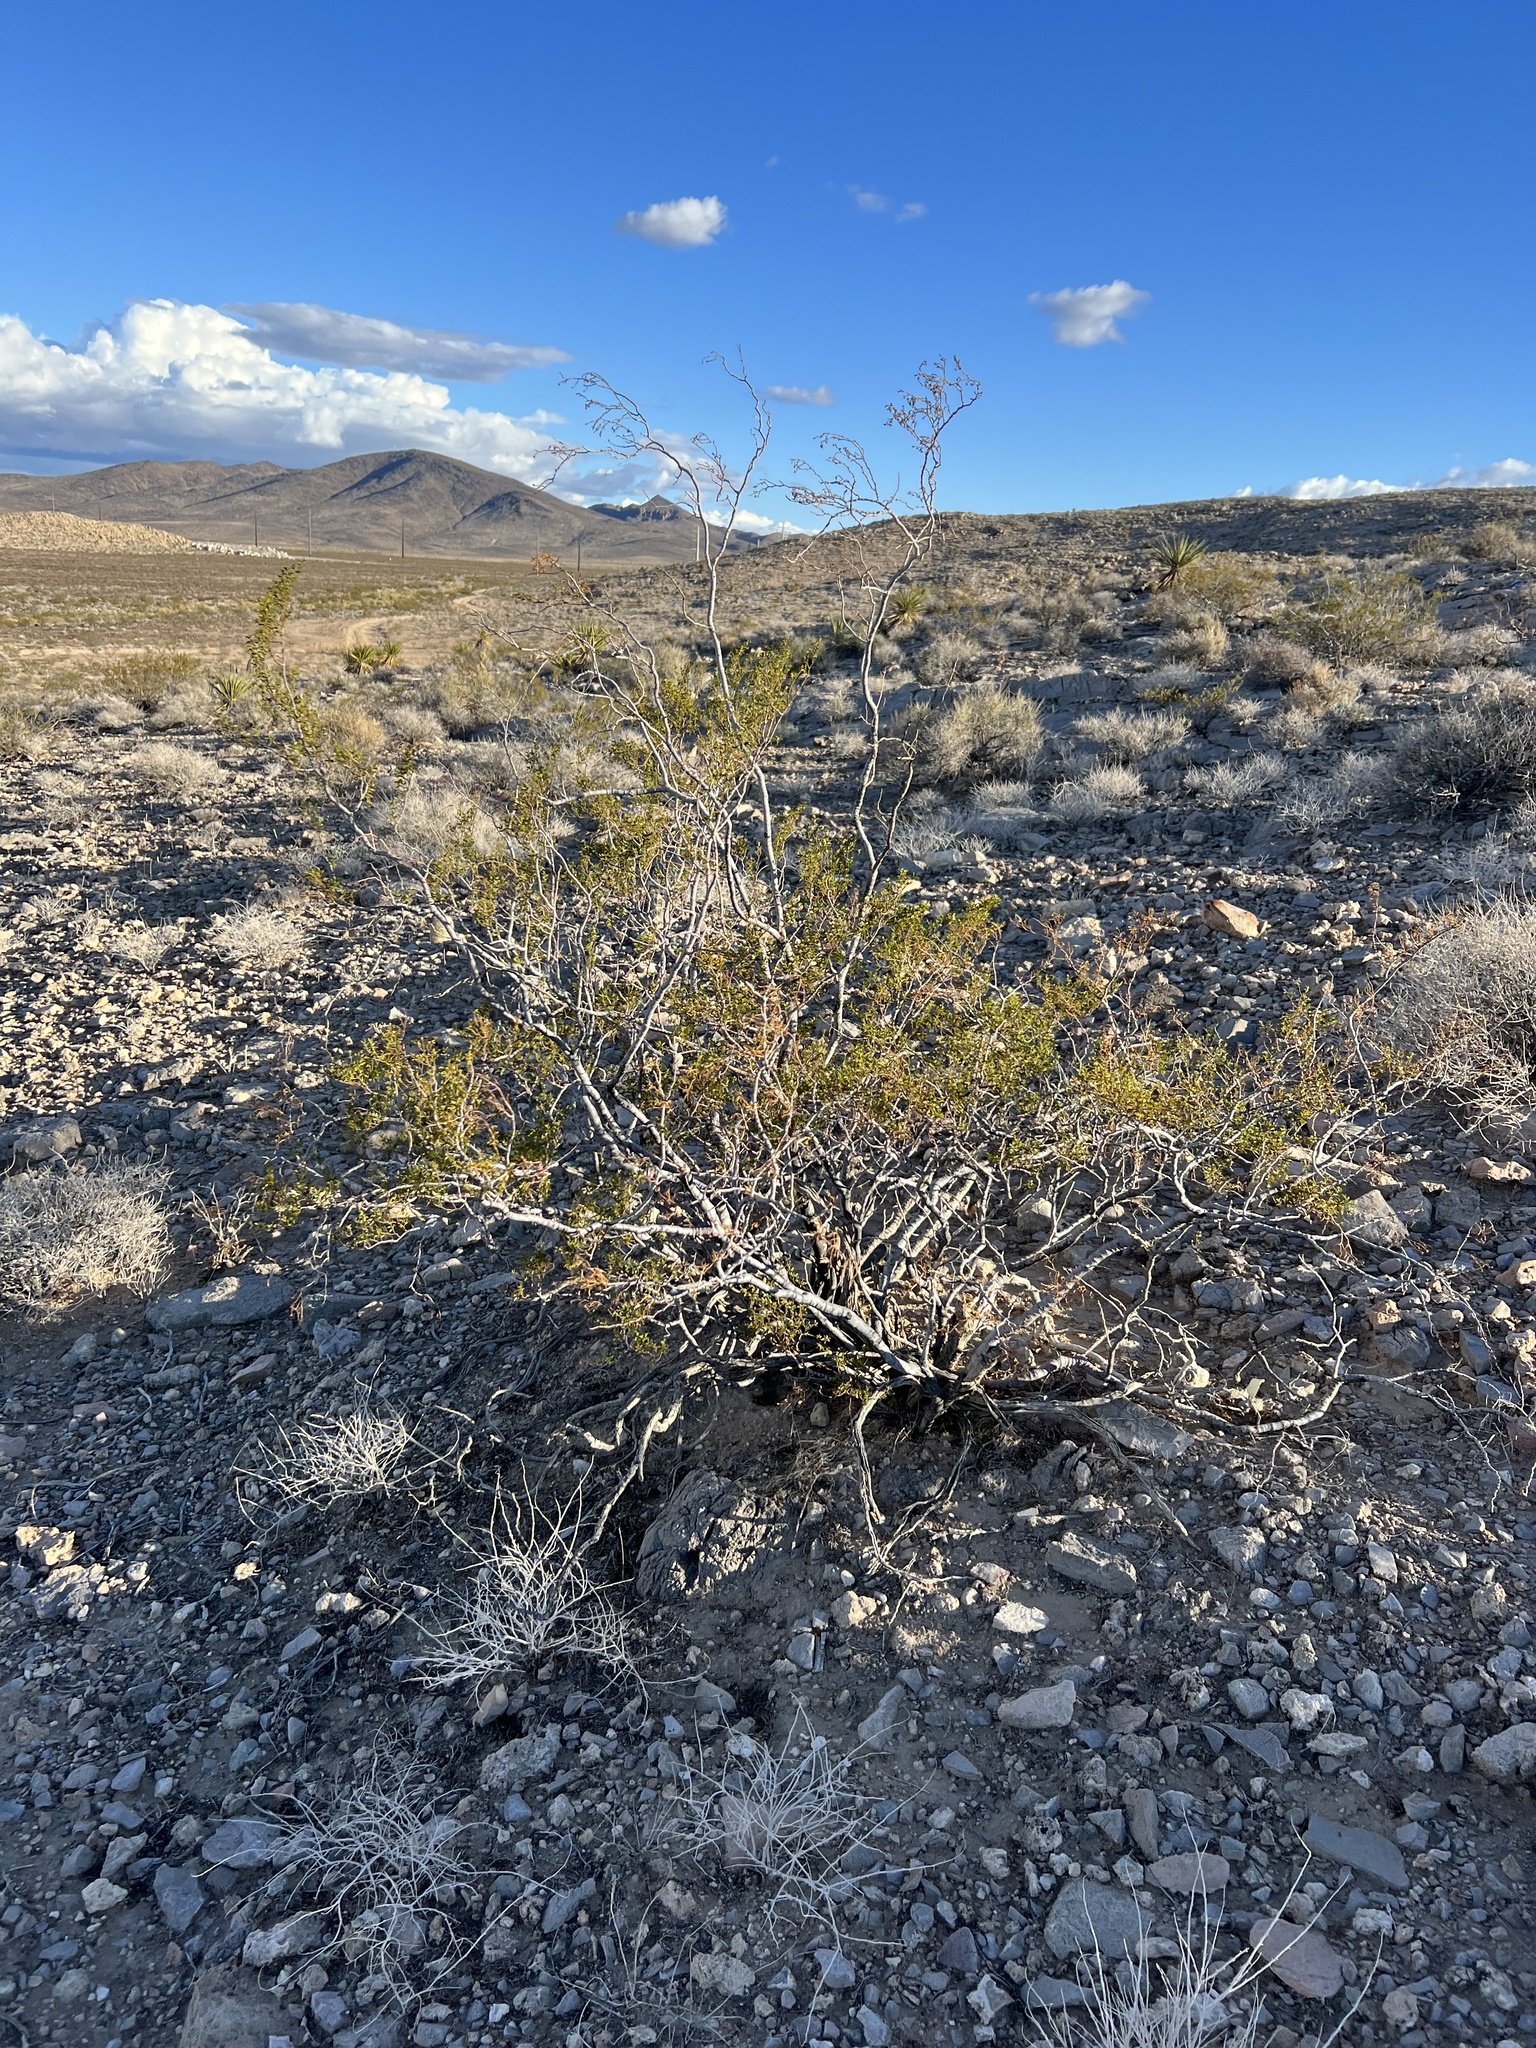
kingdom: Plantae
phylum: Tracheophyta
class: Magnoliopsida
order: Zygophyllales
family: Zygophyllaceae
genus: Larrea
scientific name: Larrea tridentata
